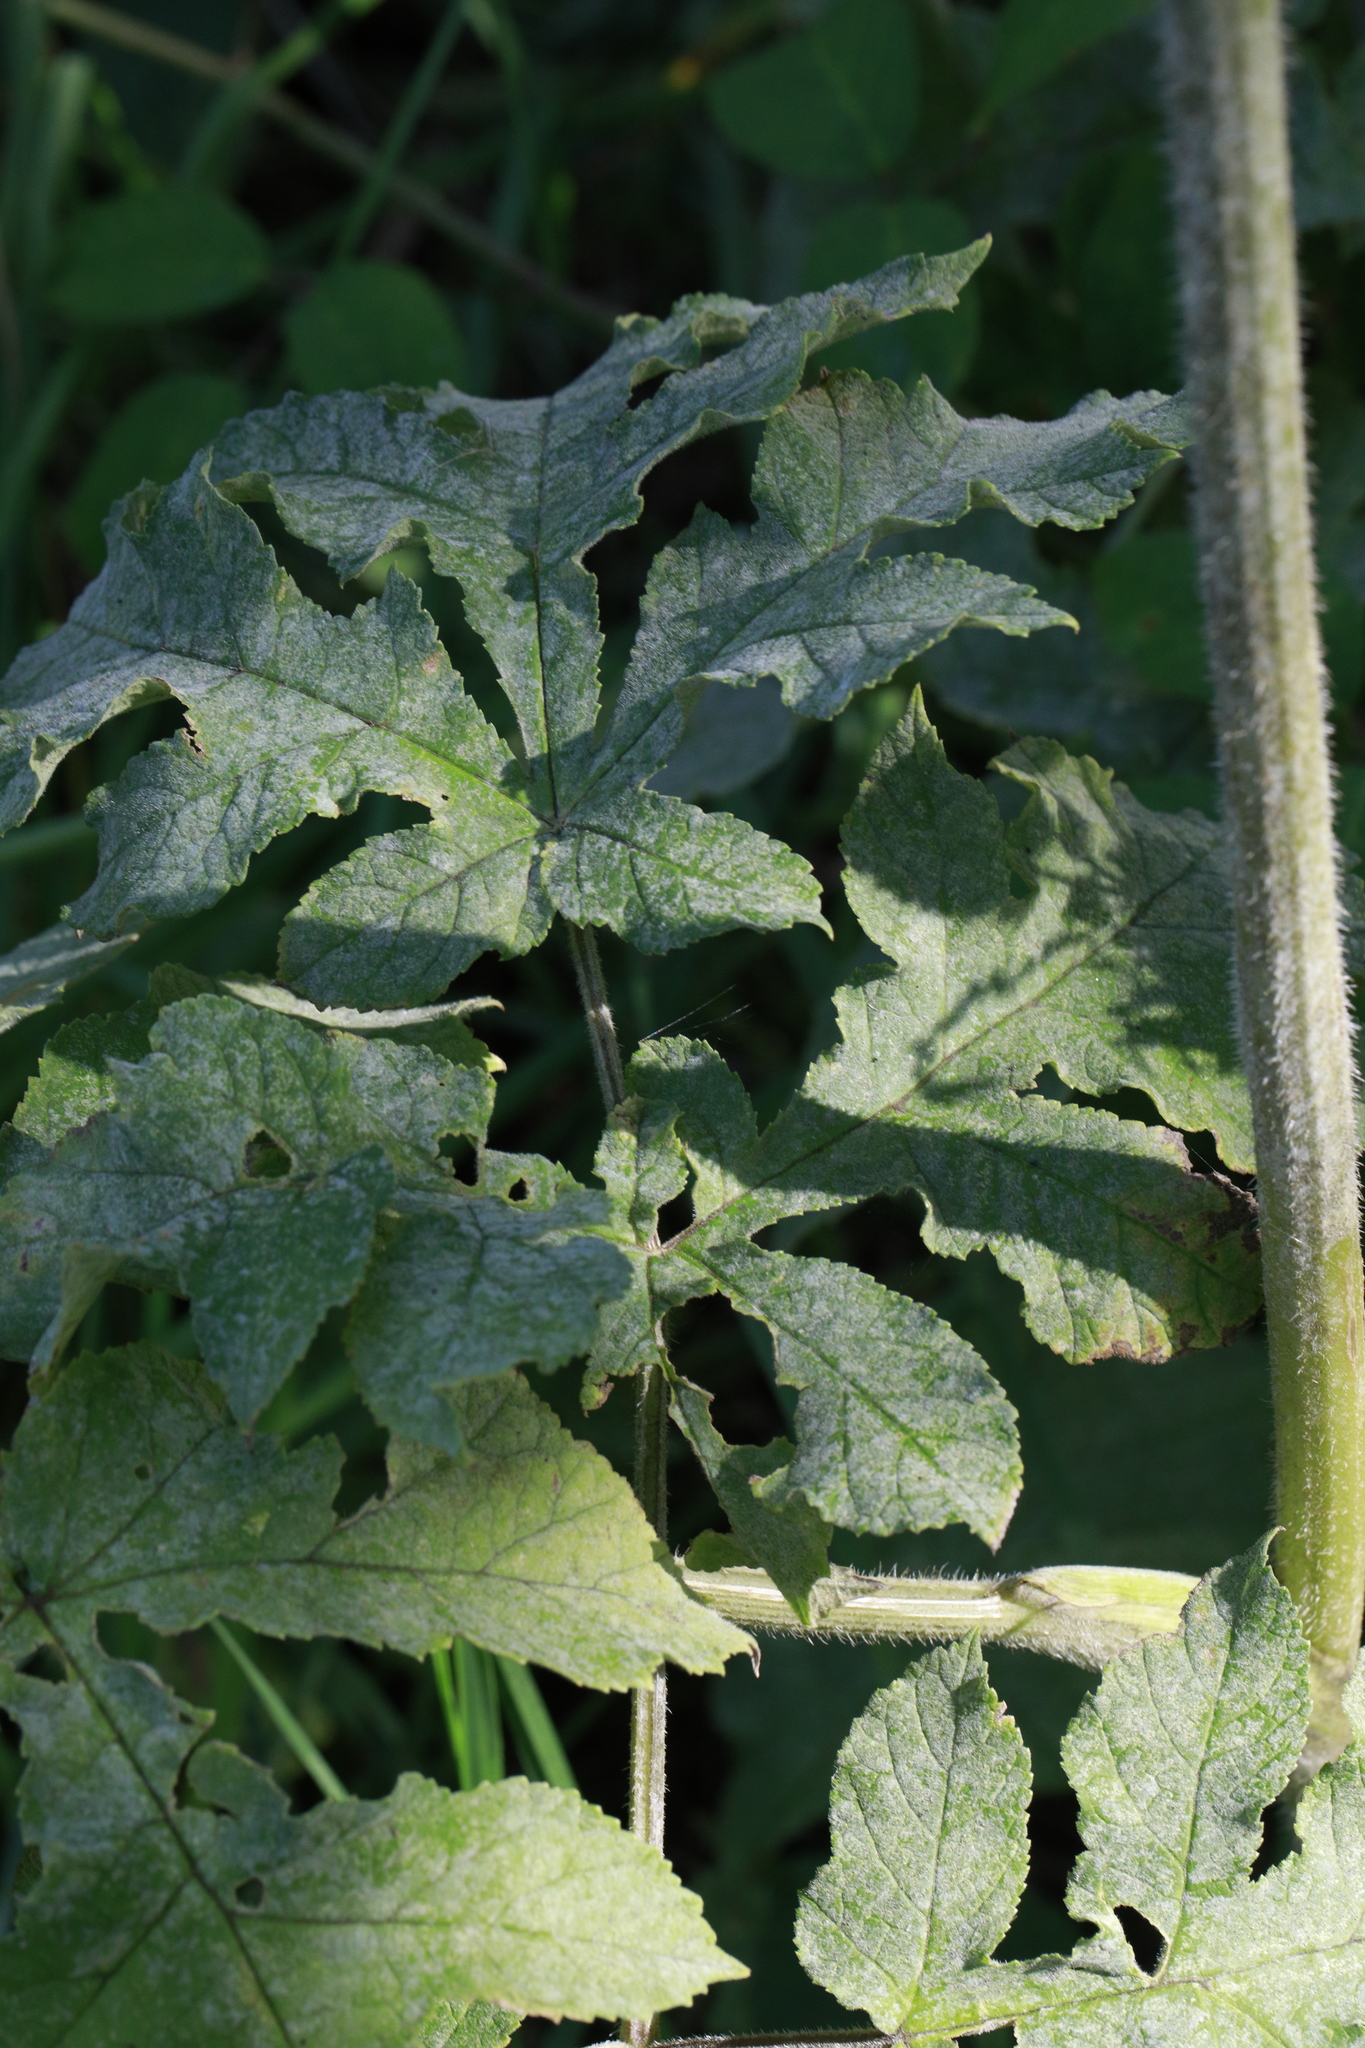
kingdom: Fungi
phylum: Ascomycota
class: Leotiomycetes
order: Helotiales
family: Erysiphaceae
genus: Erysiphe
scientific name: Erysiphe heraclei
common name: Umbellifer mildew
